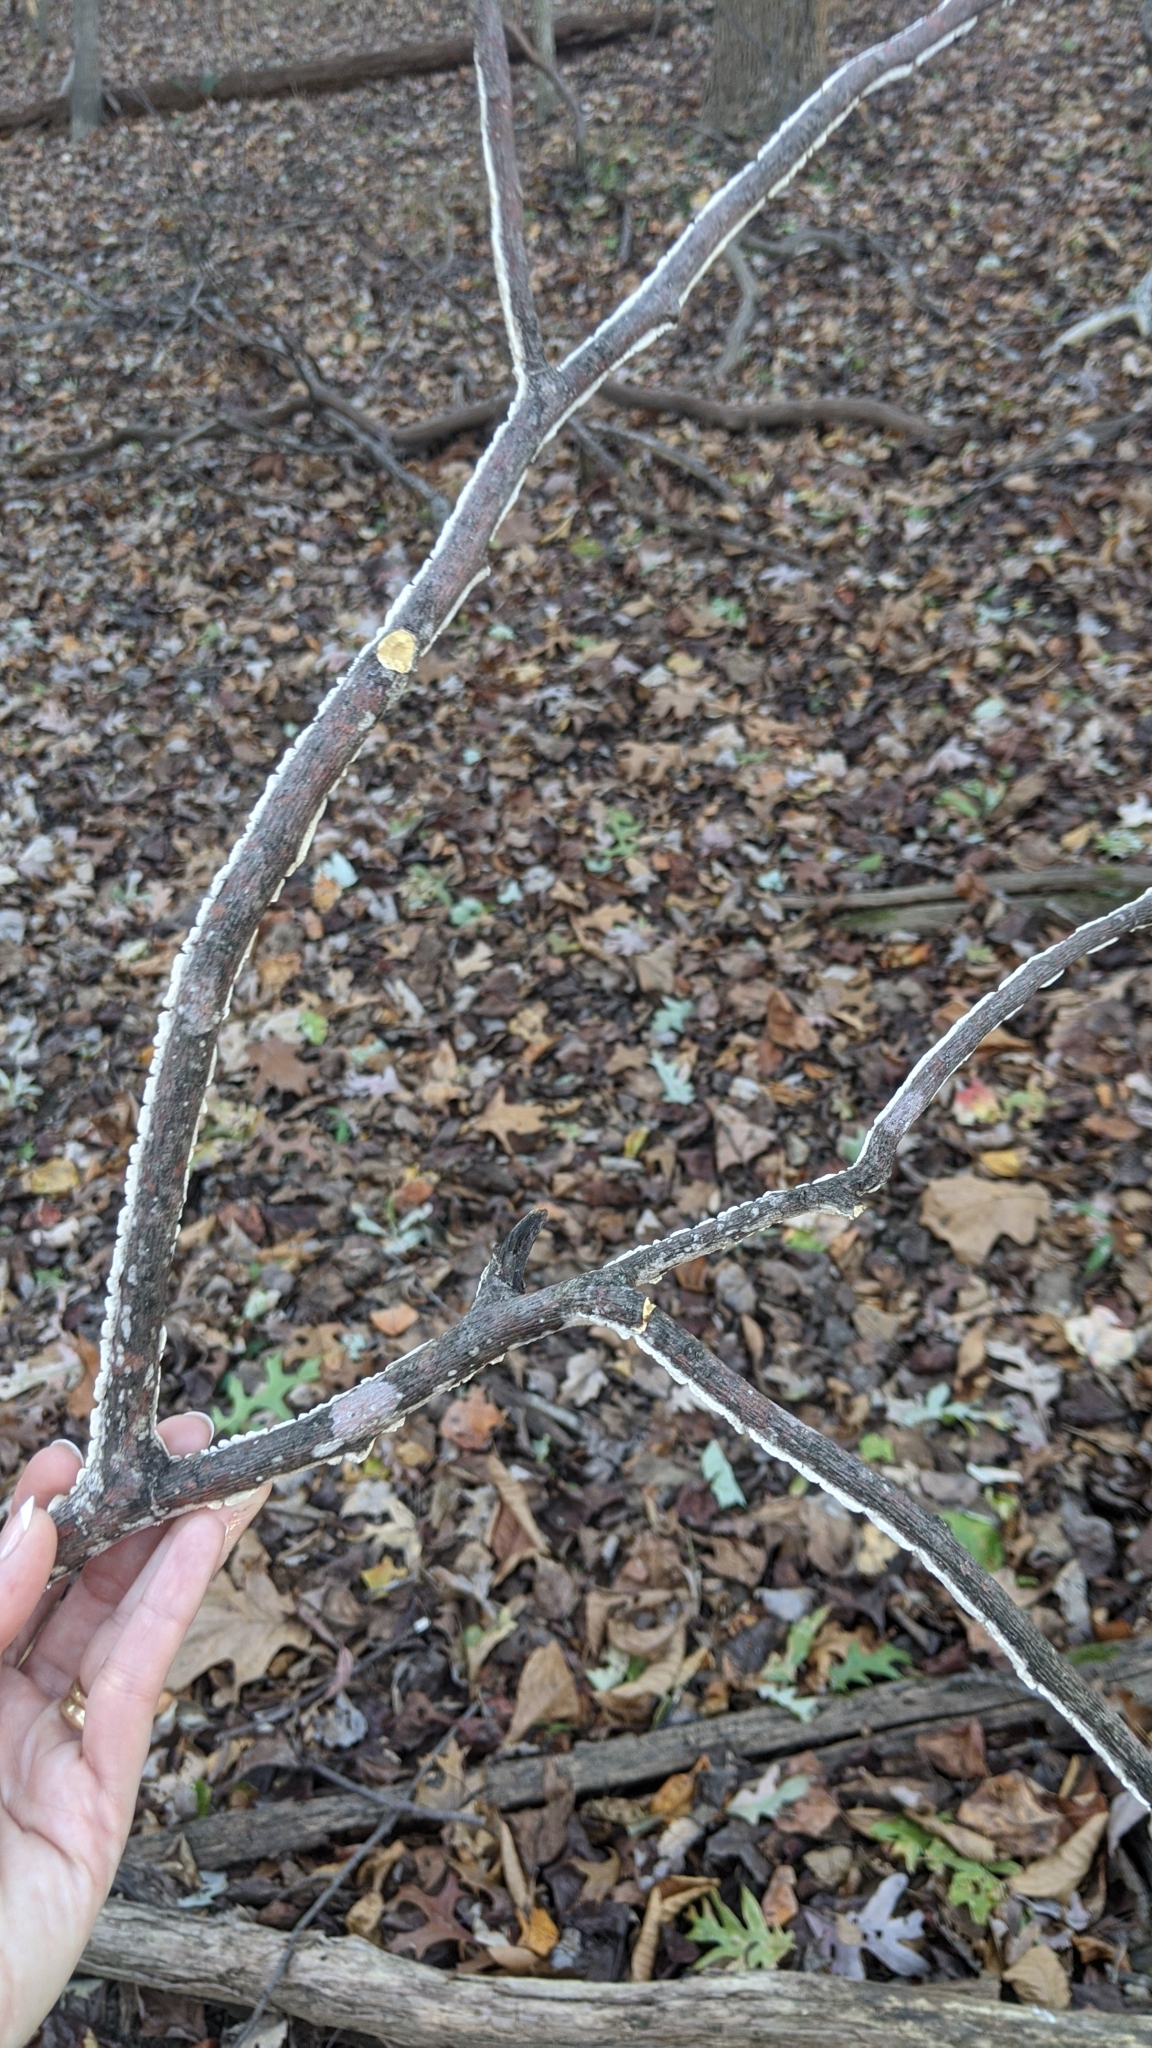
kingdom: Fungi
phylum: Basidiomycota
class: Agaricomycetes
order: Polyporales
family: Irpicaceae
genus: Irpex
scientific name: Irpex lacteus
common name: Milk-white toothed polypore
